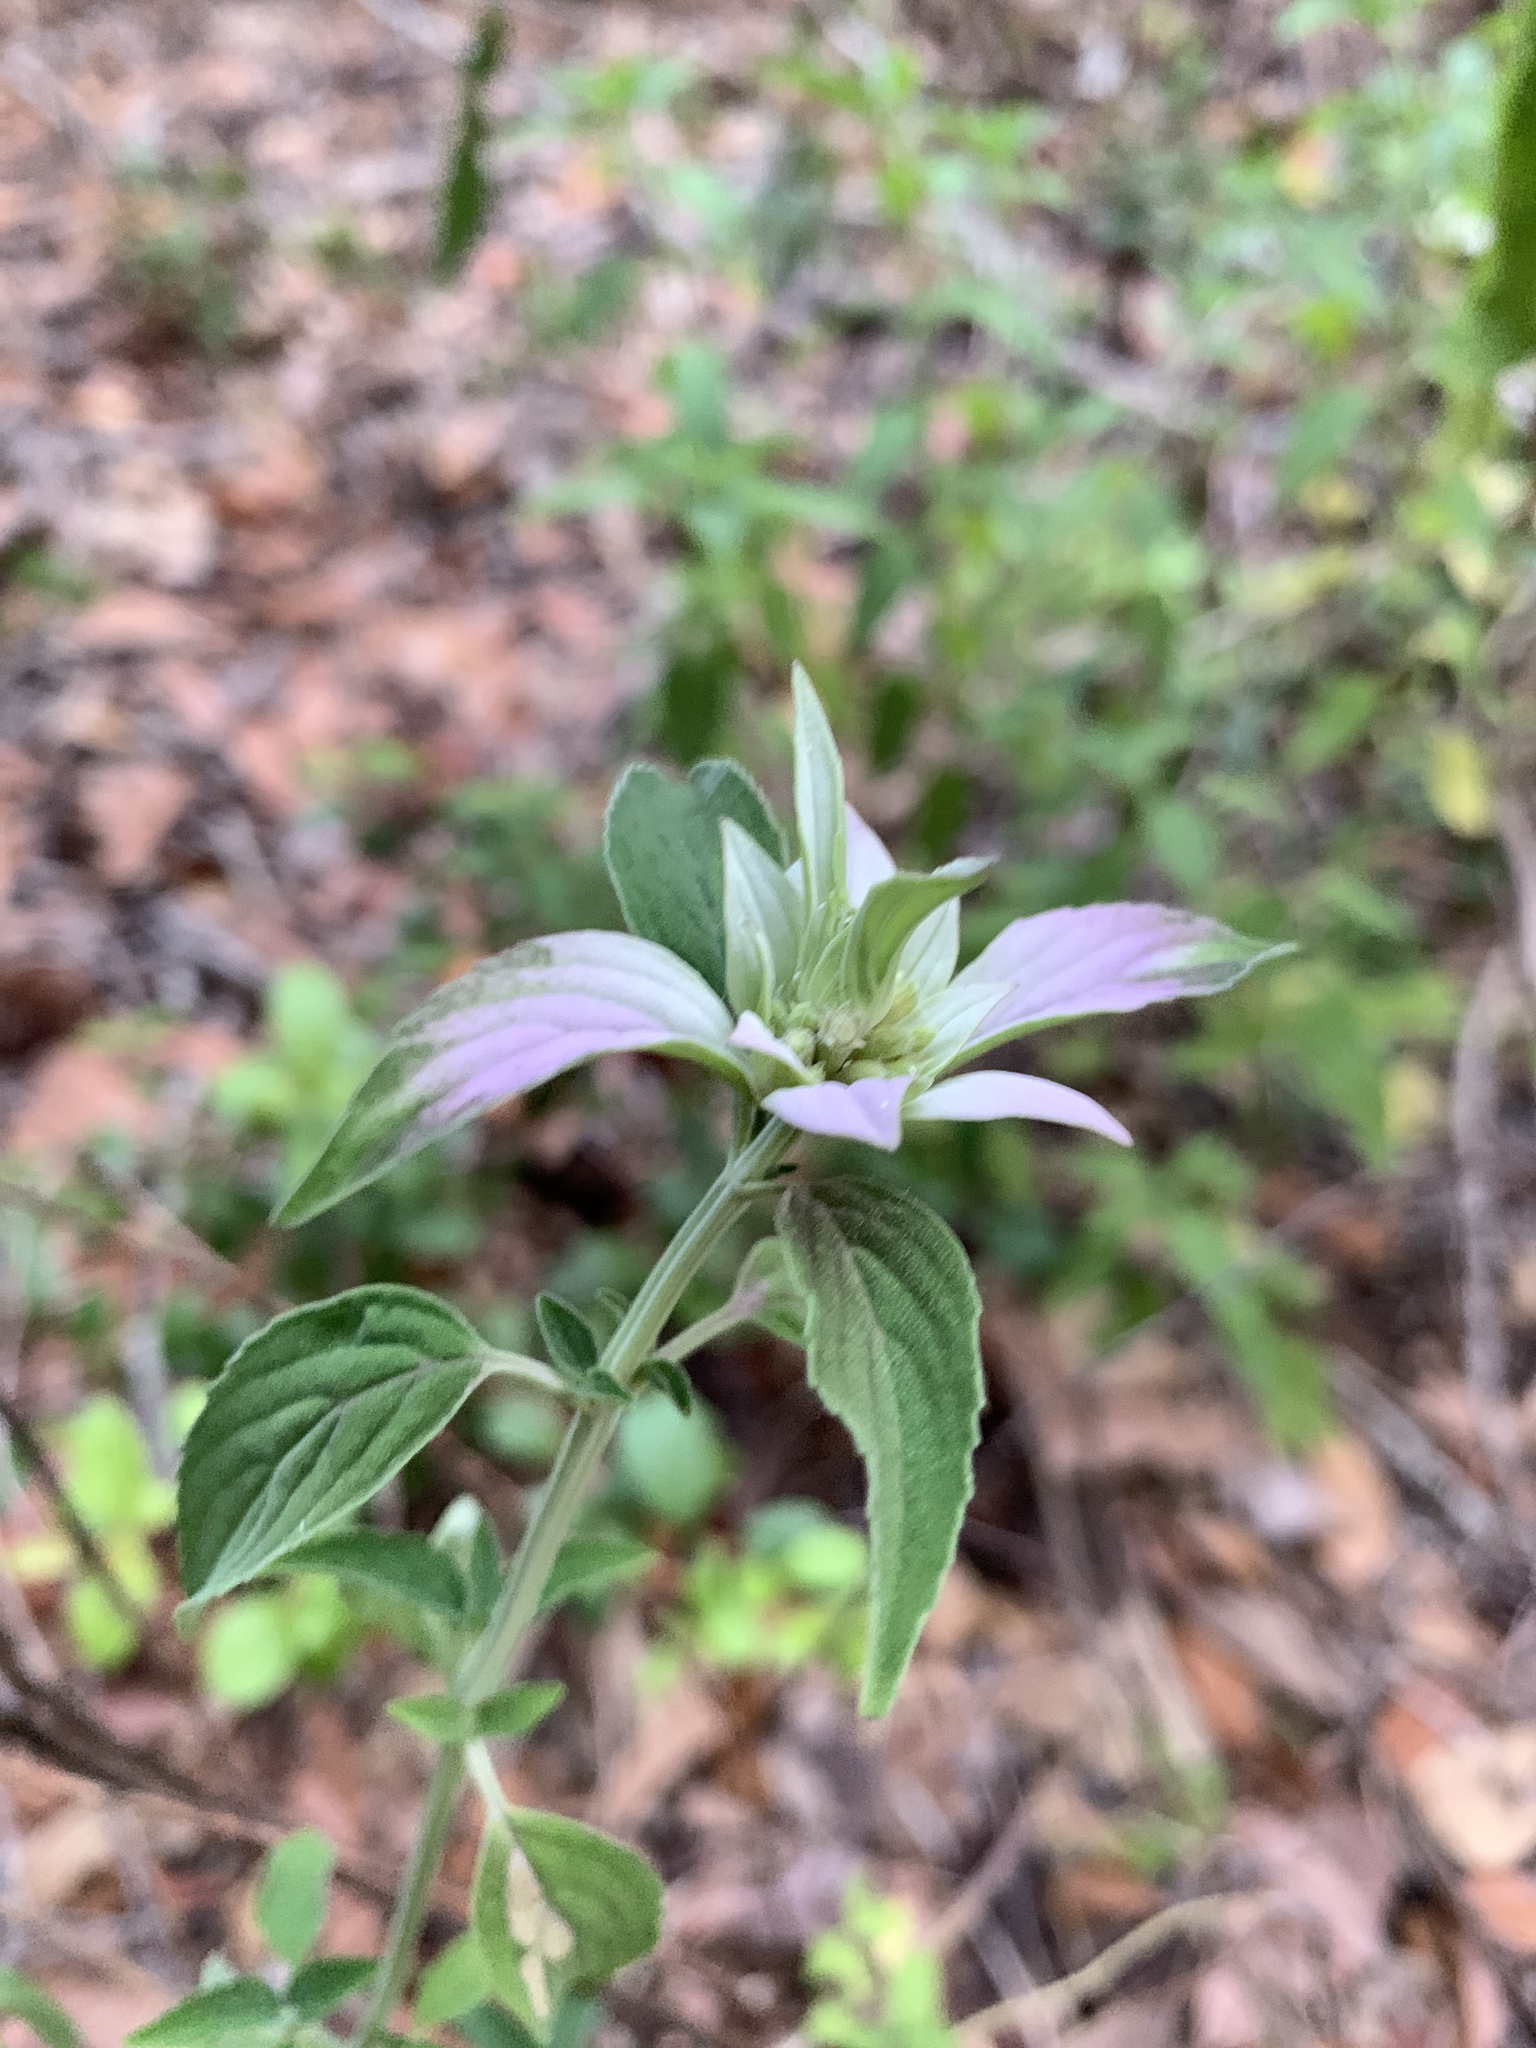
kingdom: Plantae
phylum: Tracheophyta
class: Magnoliopsida
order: Lamiales
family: Lamiaceae
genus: Monarda
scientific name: Monarda punctata
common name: Dotted monarda
